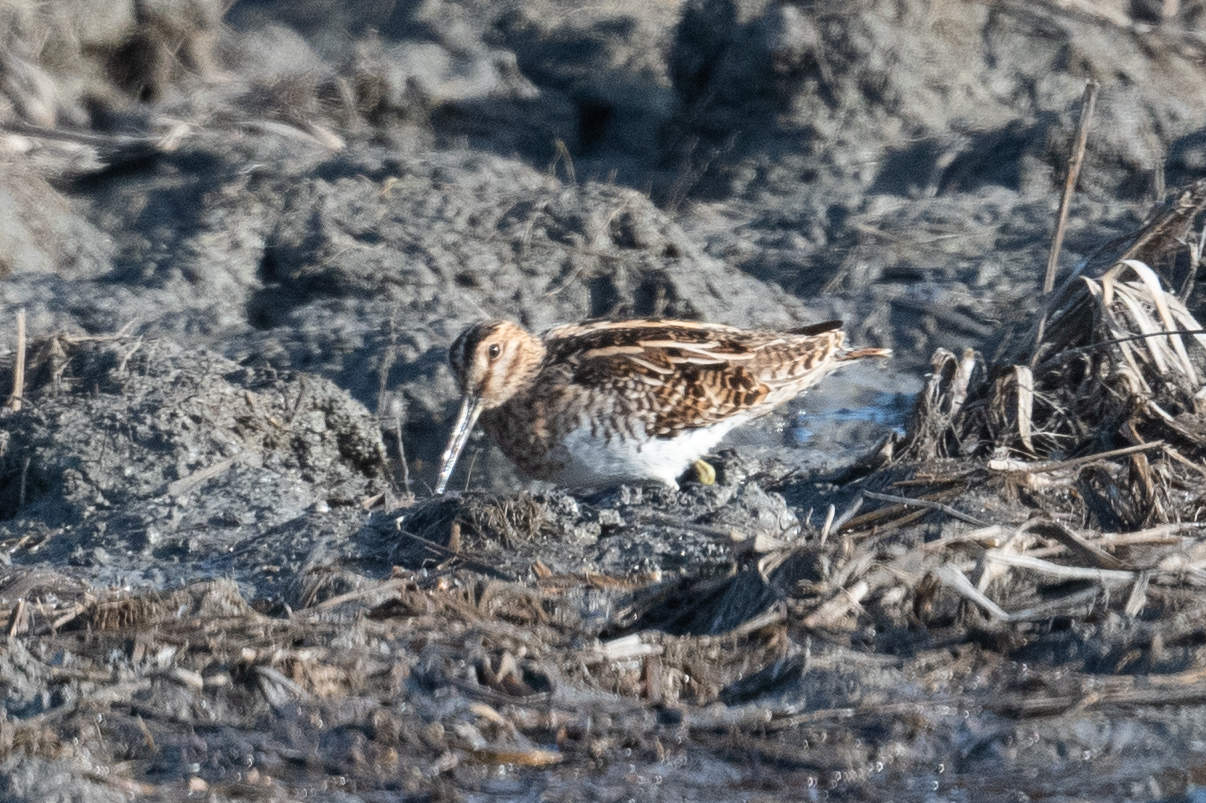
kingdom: Animalia
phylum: Chordata
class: Aves
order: Charadriiformes
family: Scolopacidae
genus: Gallinago
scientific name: Gallinago delicata
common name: Wilson's snipe
